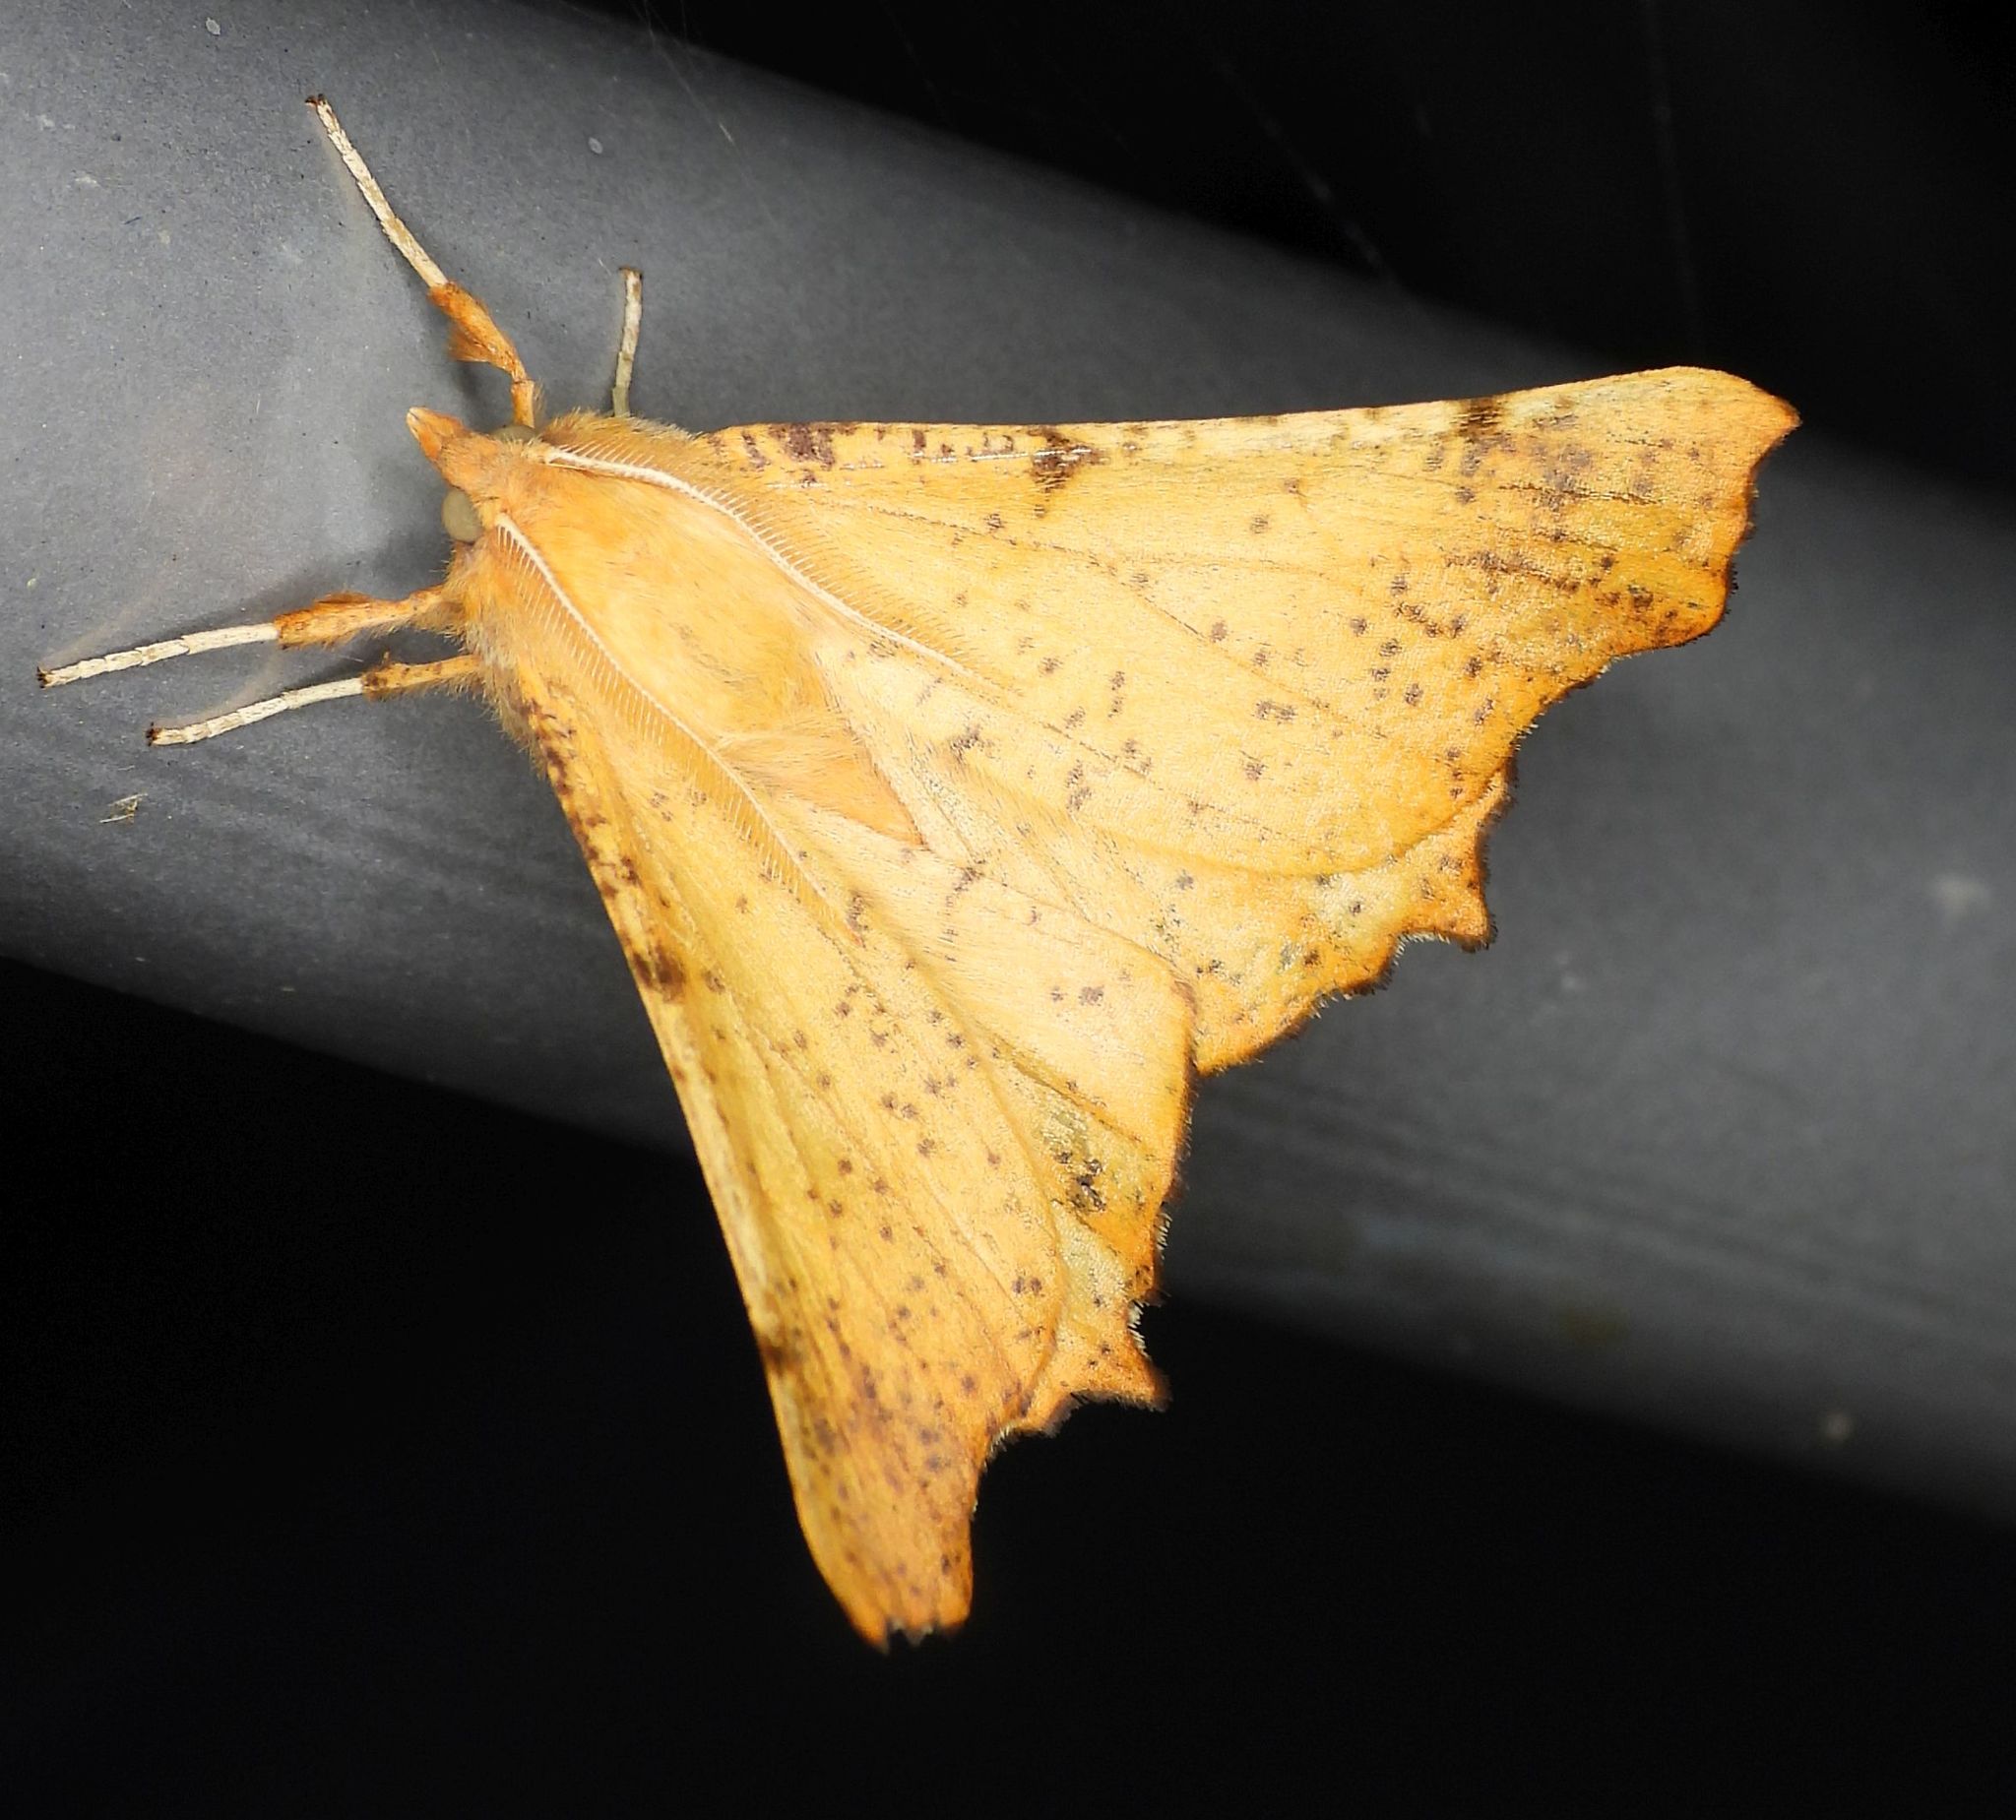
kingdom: Animalia
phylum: Arthropoda
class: Insecta
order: Lepidoptera
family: Geometridae
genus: Ennomos
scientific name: Ennomos magnaria
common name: Maple spanworm
